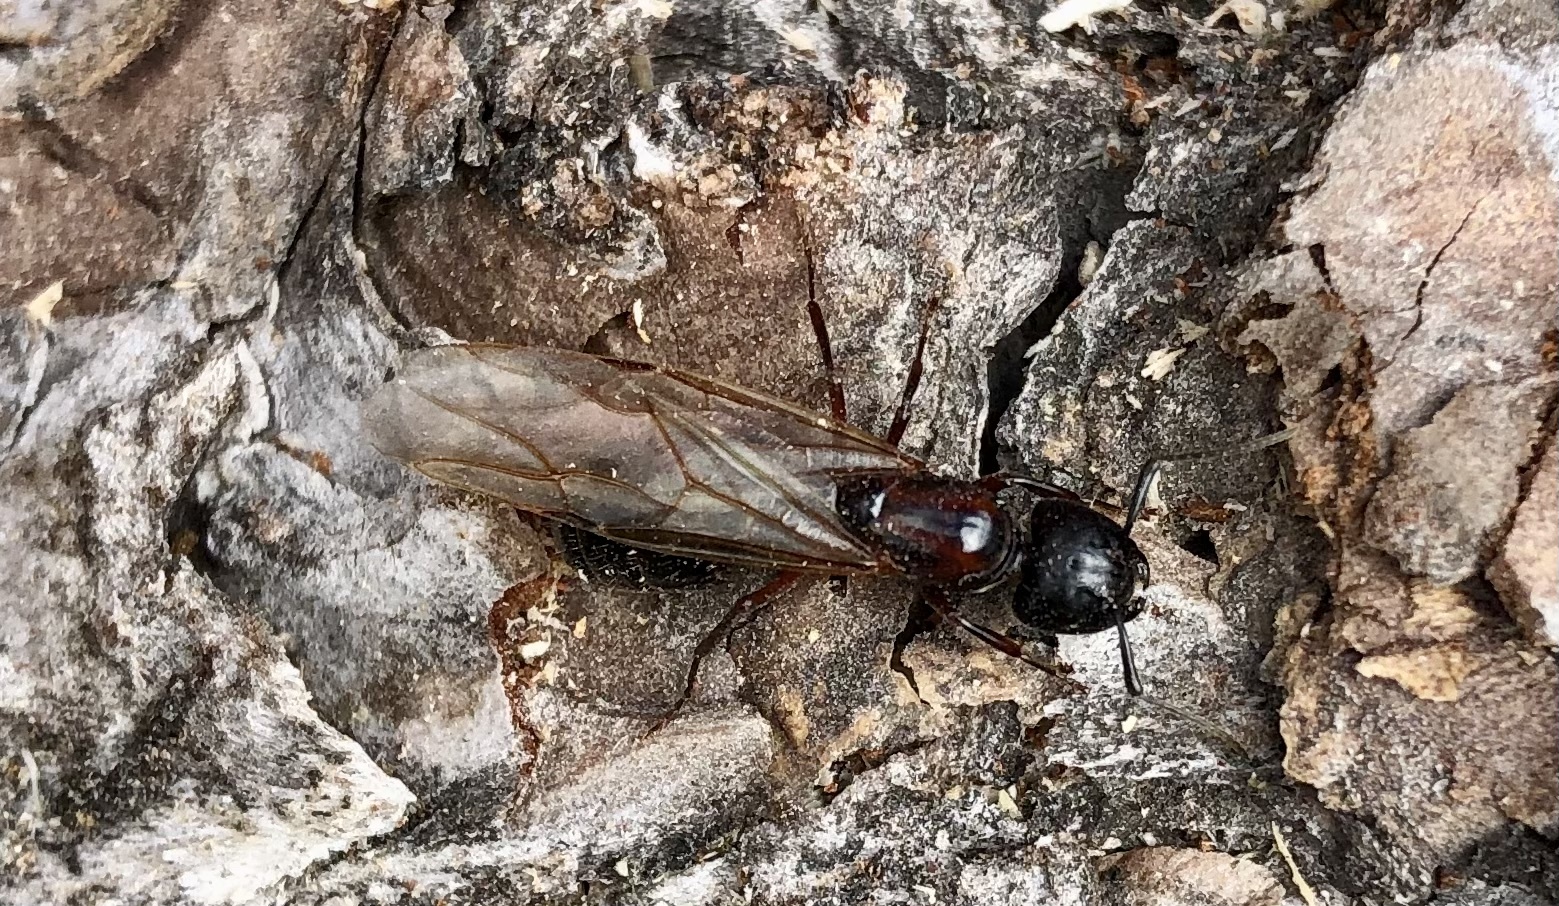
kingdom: Animalia
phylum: Arthropoda
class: Insecta
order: Hymenoptera
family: Formicidae
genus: Camponotus
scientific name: Camponotus novaeboracensis
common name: New york carpenter ant
